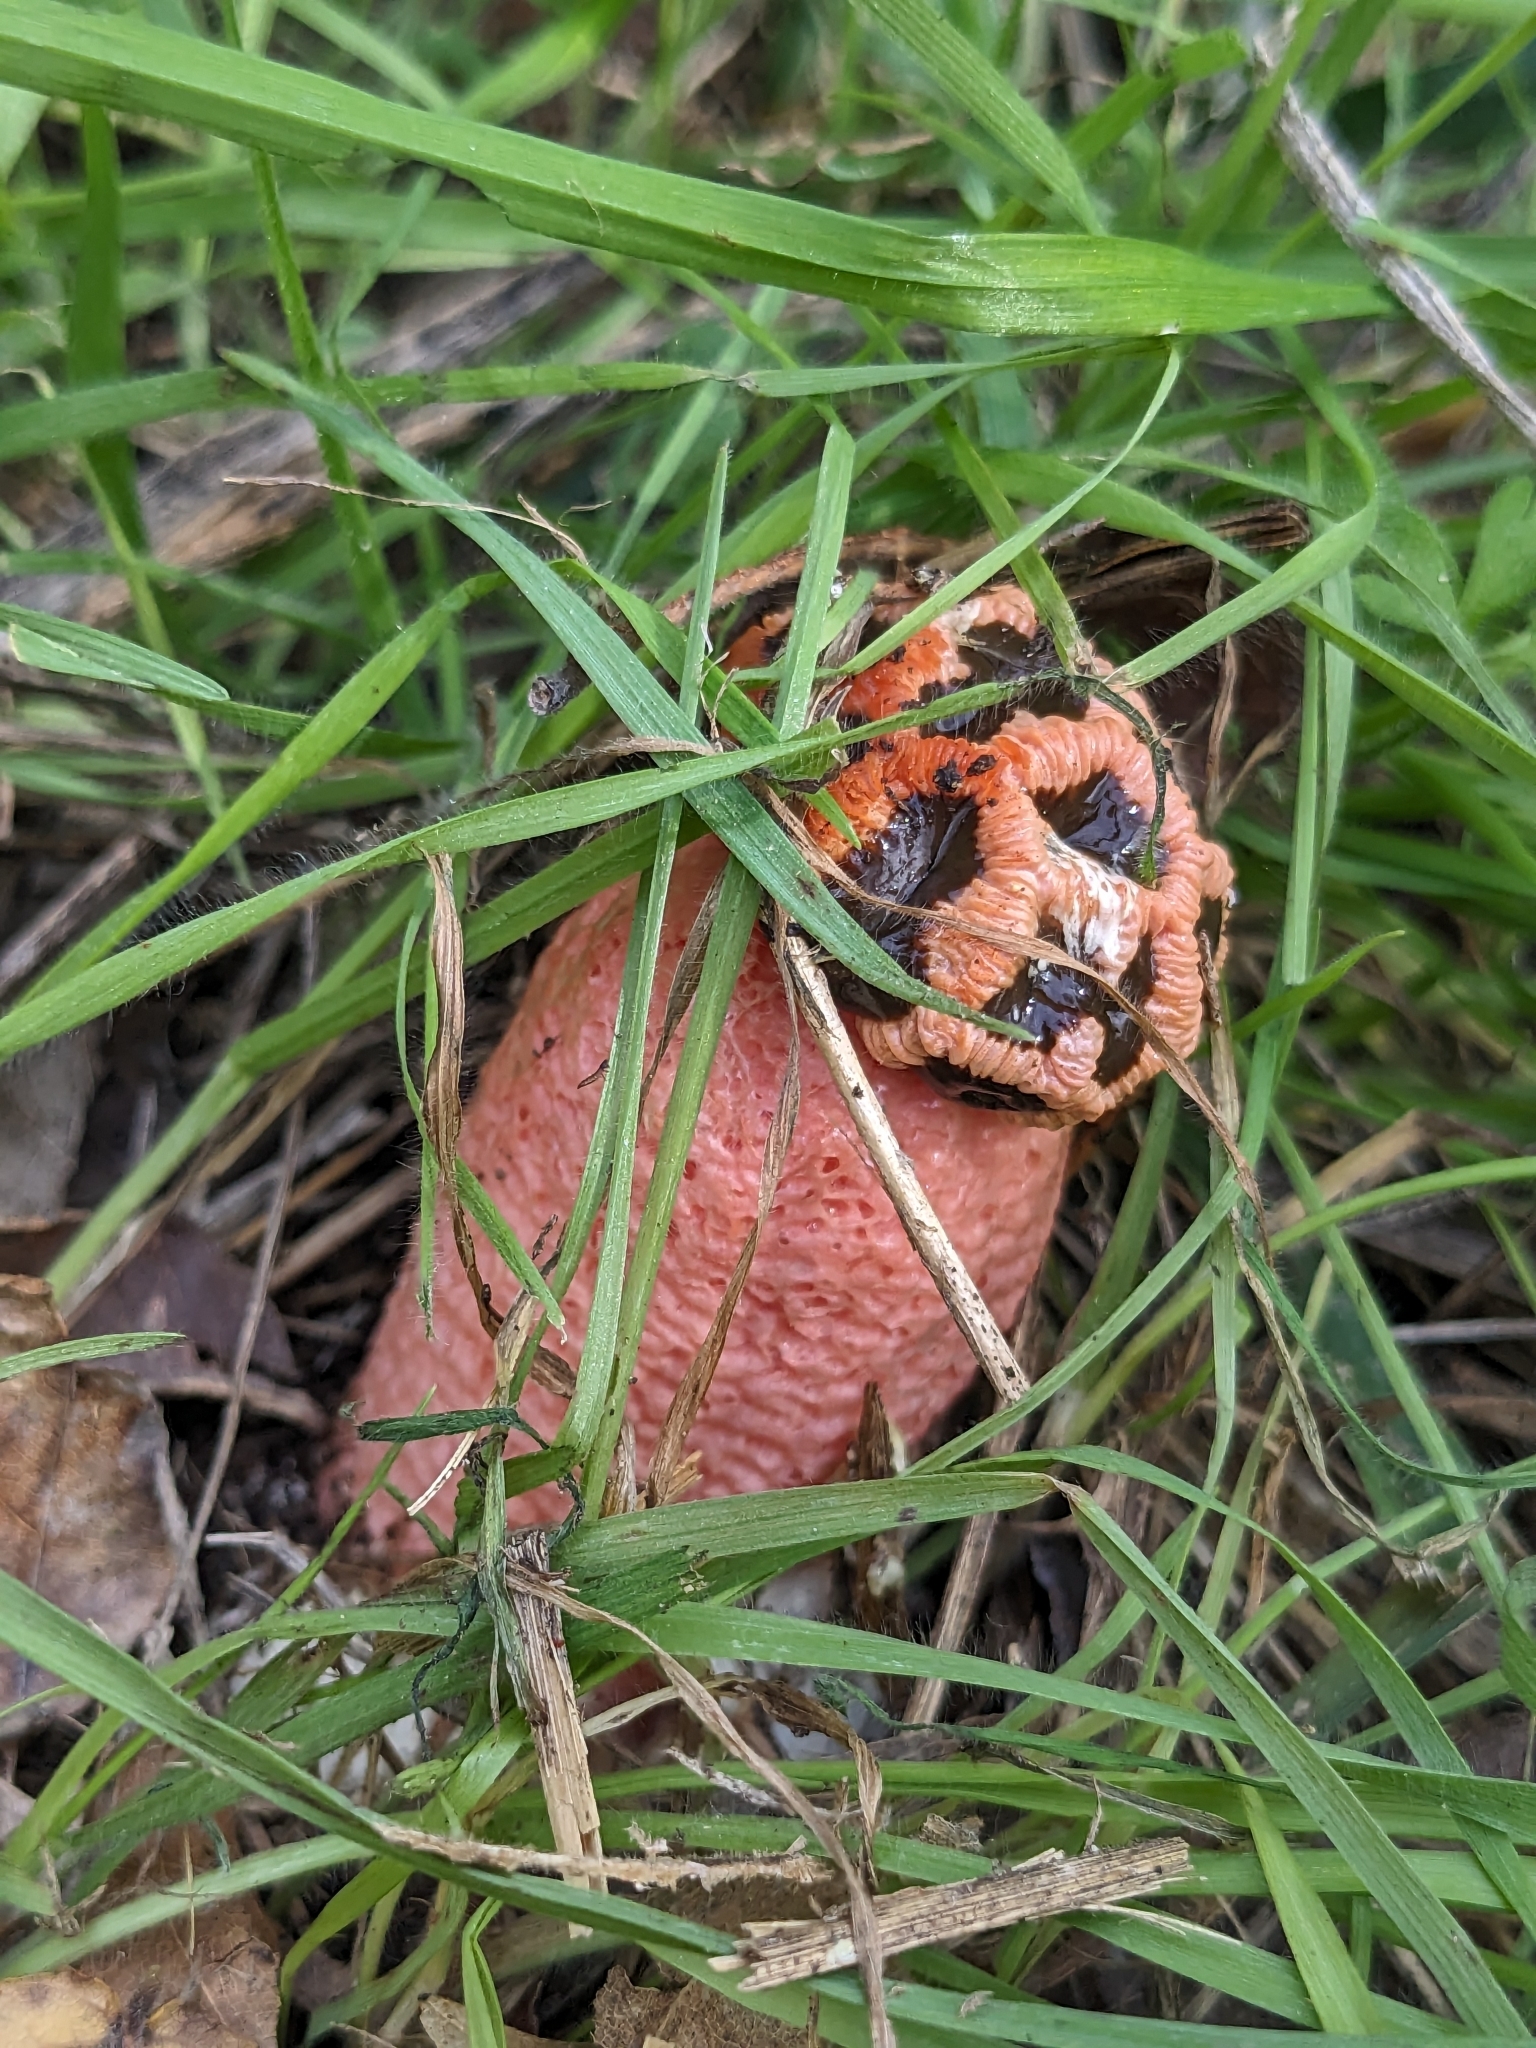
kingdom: Fungi
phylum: Basidiomycota
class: Agaricomycetes
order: Phallales
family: Phallaceae
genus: Lysurus
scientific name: Lysurus periphragmoides
